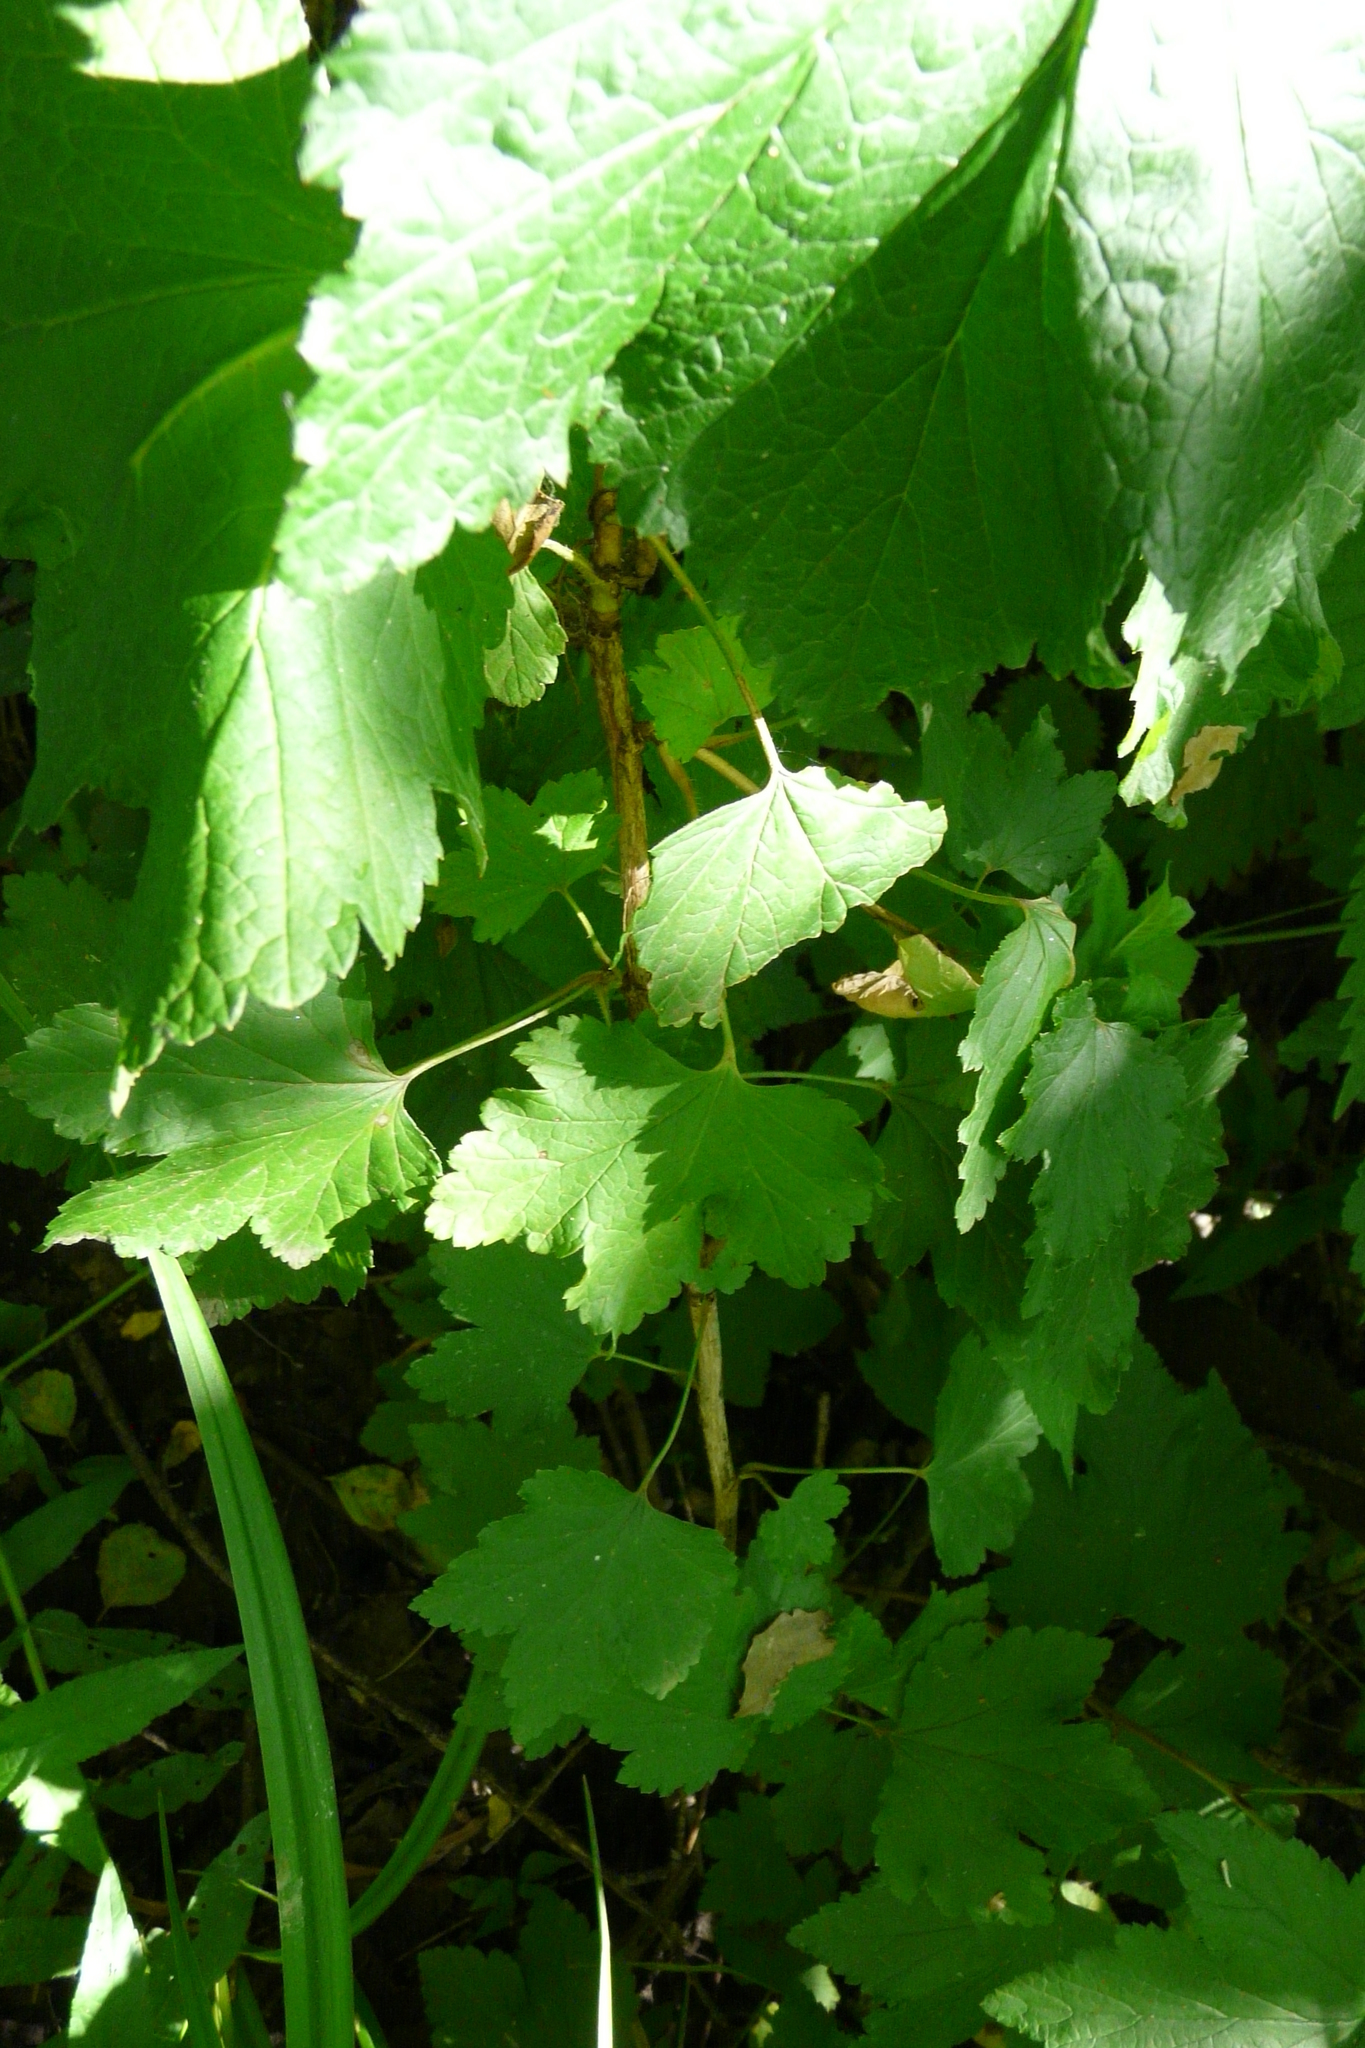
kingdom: Plantae
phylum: Tracheophyta
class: Magnoliopsida
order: Saxifragales
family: Grossulariaceae
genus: Ribes
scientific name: Ribes nigrum
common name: Black currant
